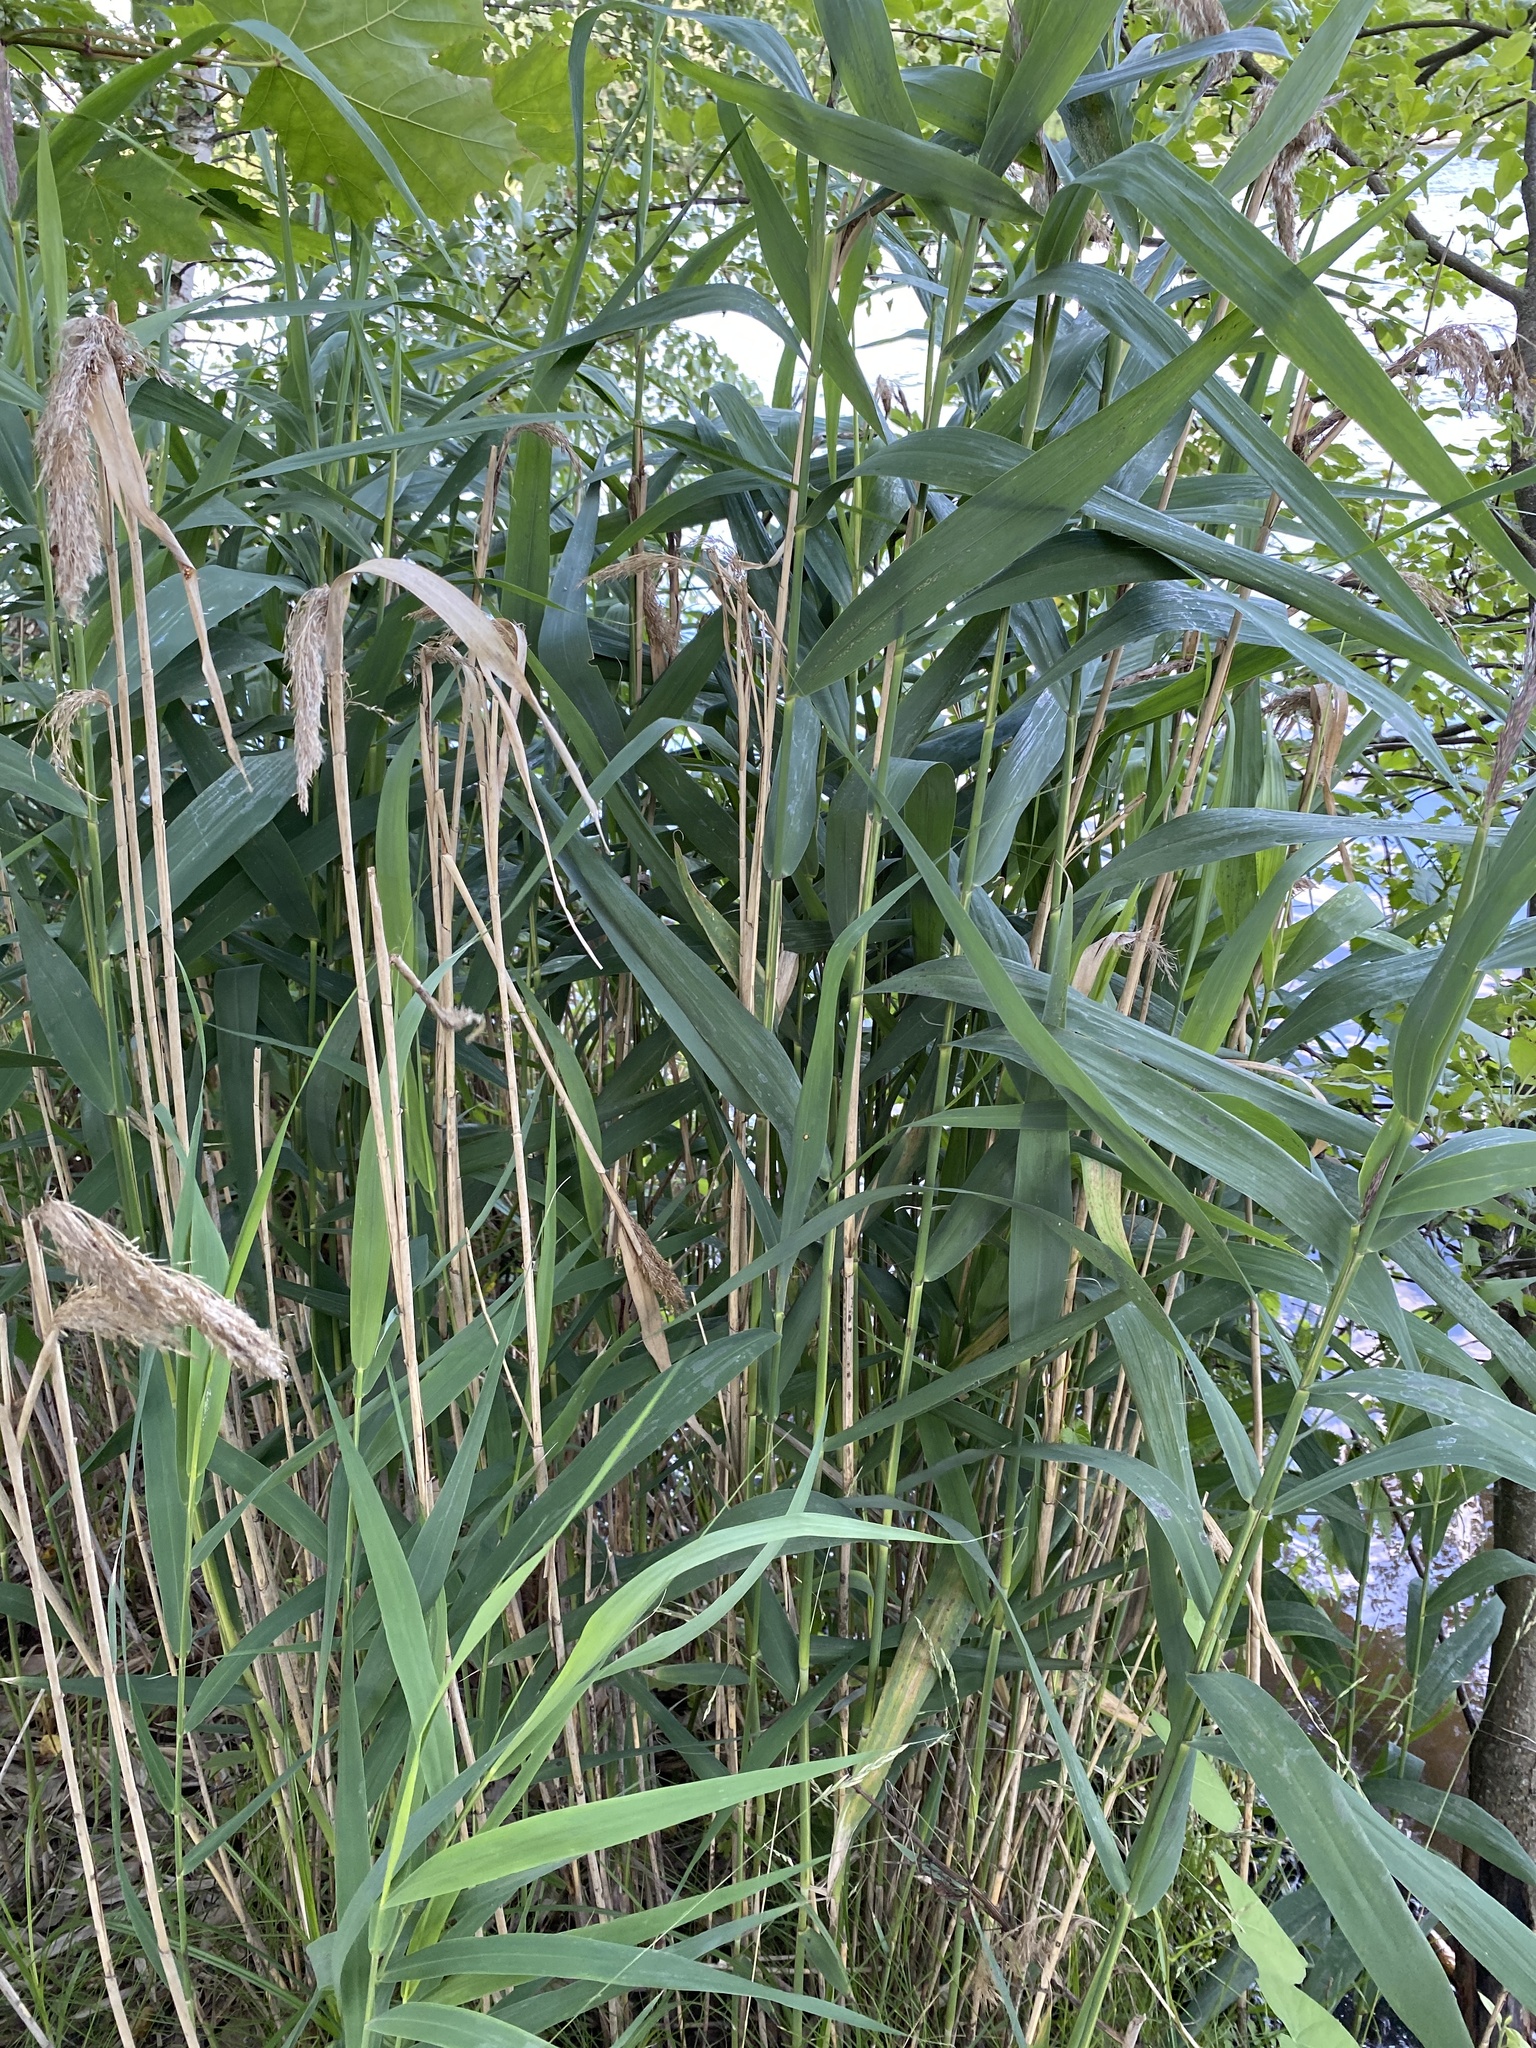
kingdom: Plantae
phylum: Tracheophyta
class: Liliopsida
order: Poales
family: Poaceae
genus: Phragmites
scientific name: Phragmites australis
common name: Common reed
